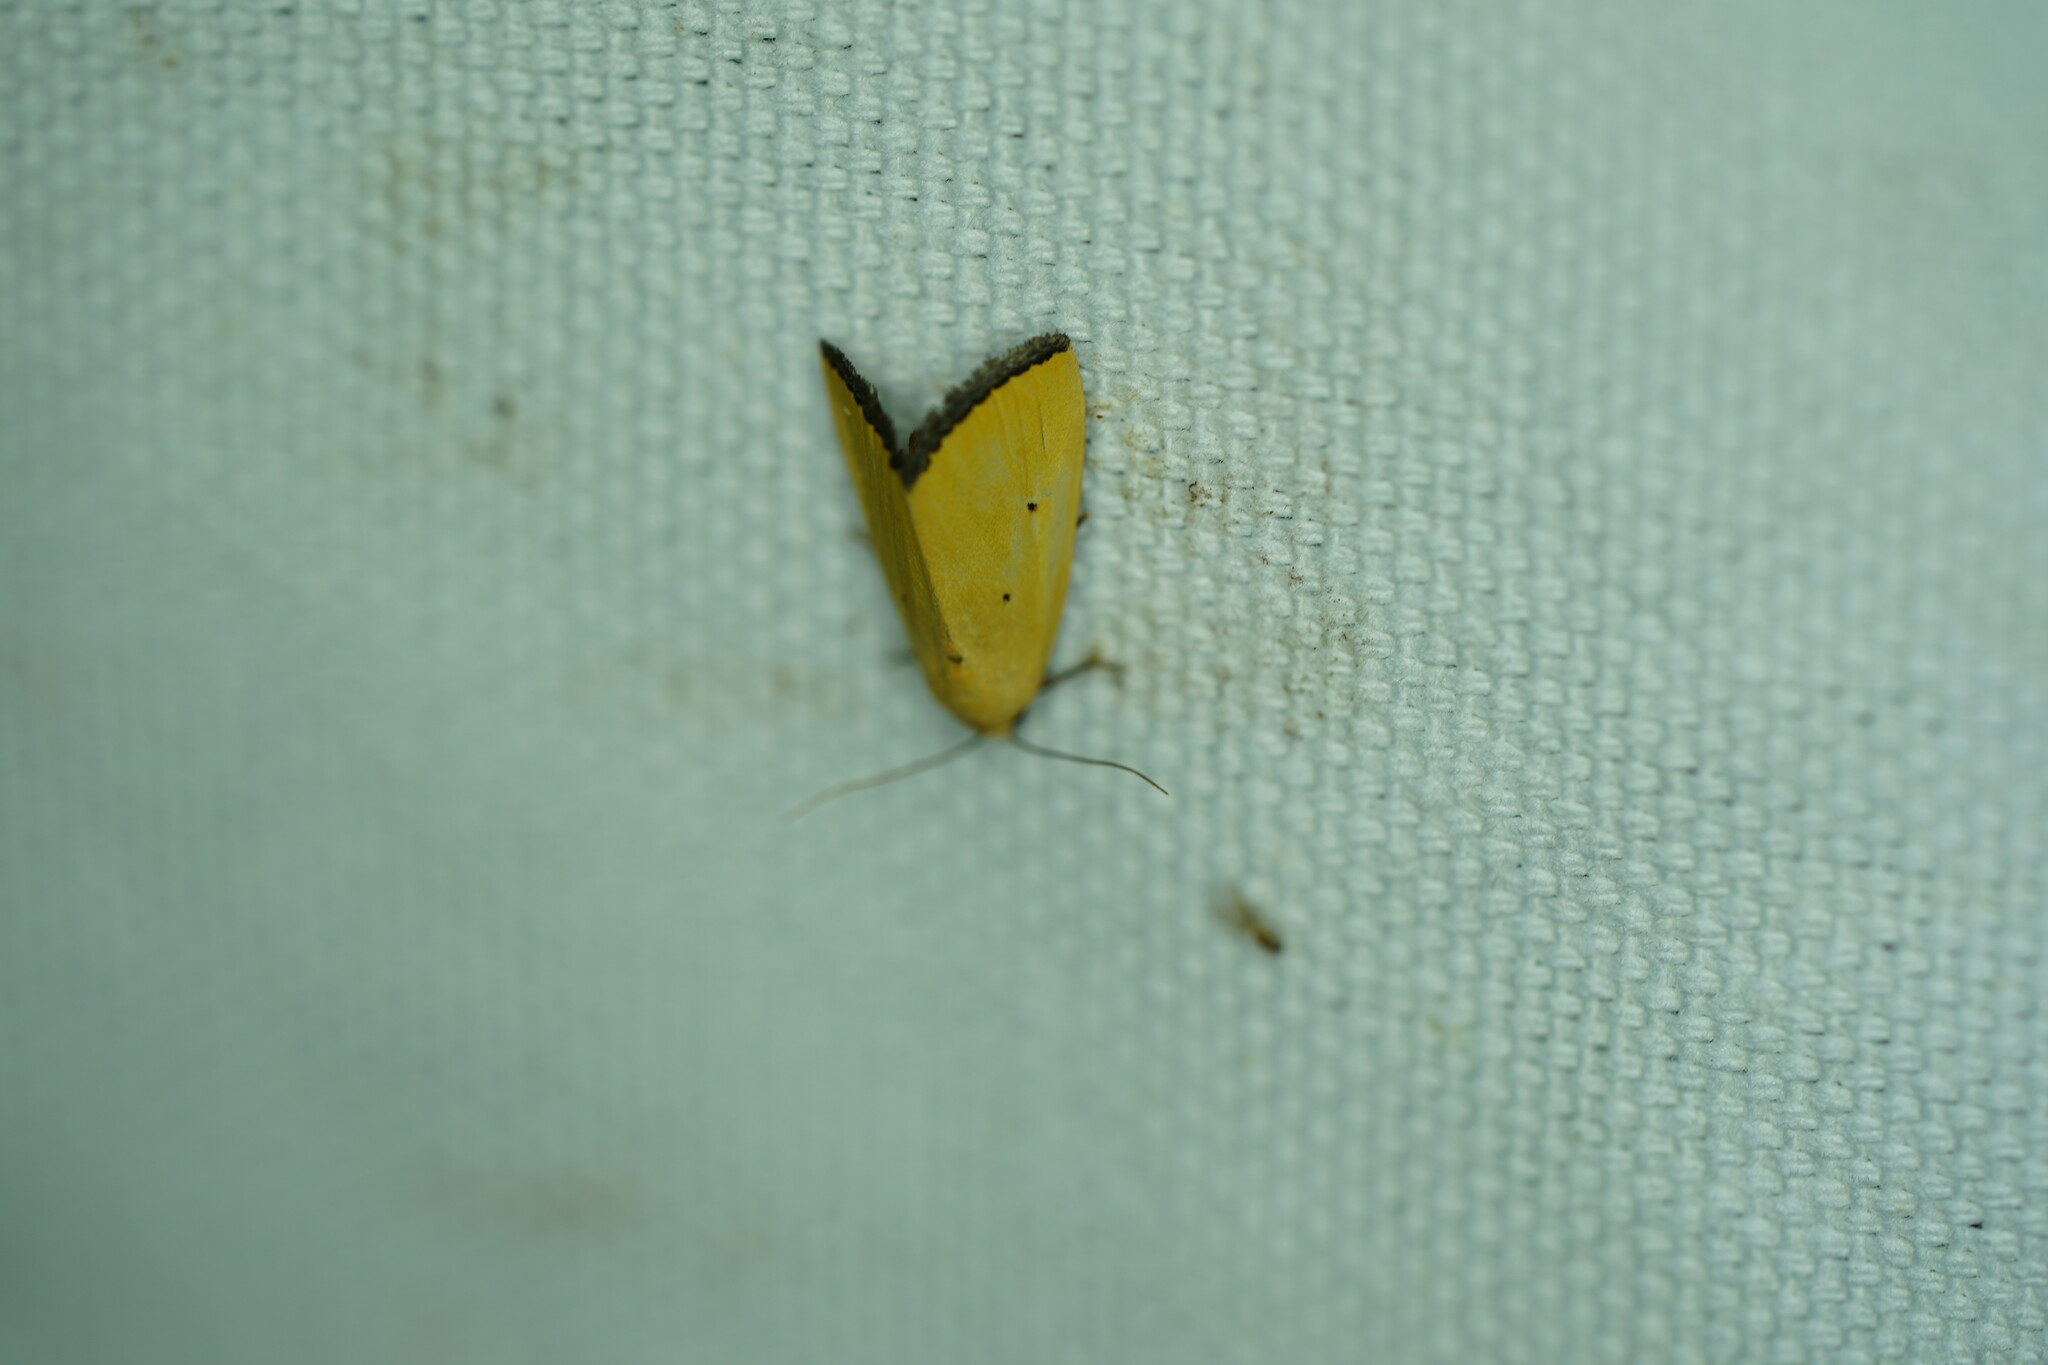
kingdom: Animalia
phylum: Arthropoda
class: Insecta
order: Lepidoptera
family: Noctuidae
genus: Marimatha
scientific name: Marimatha nigrofimbria
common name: Black-bordered lemon moth
